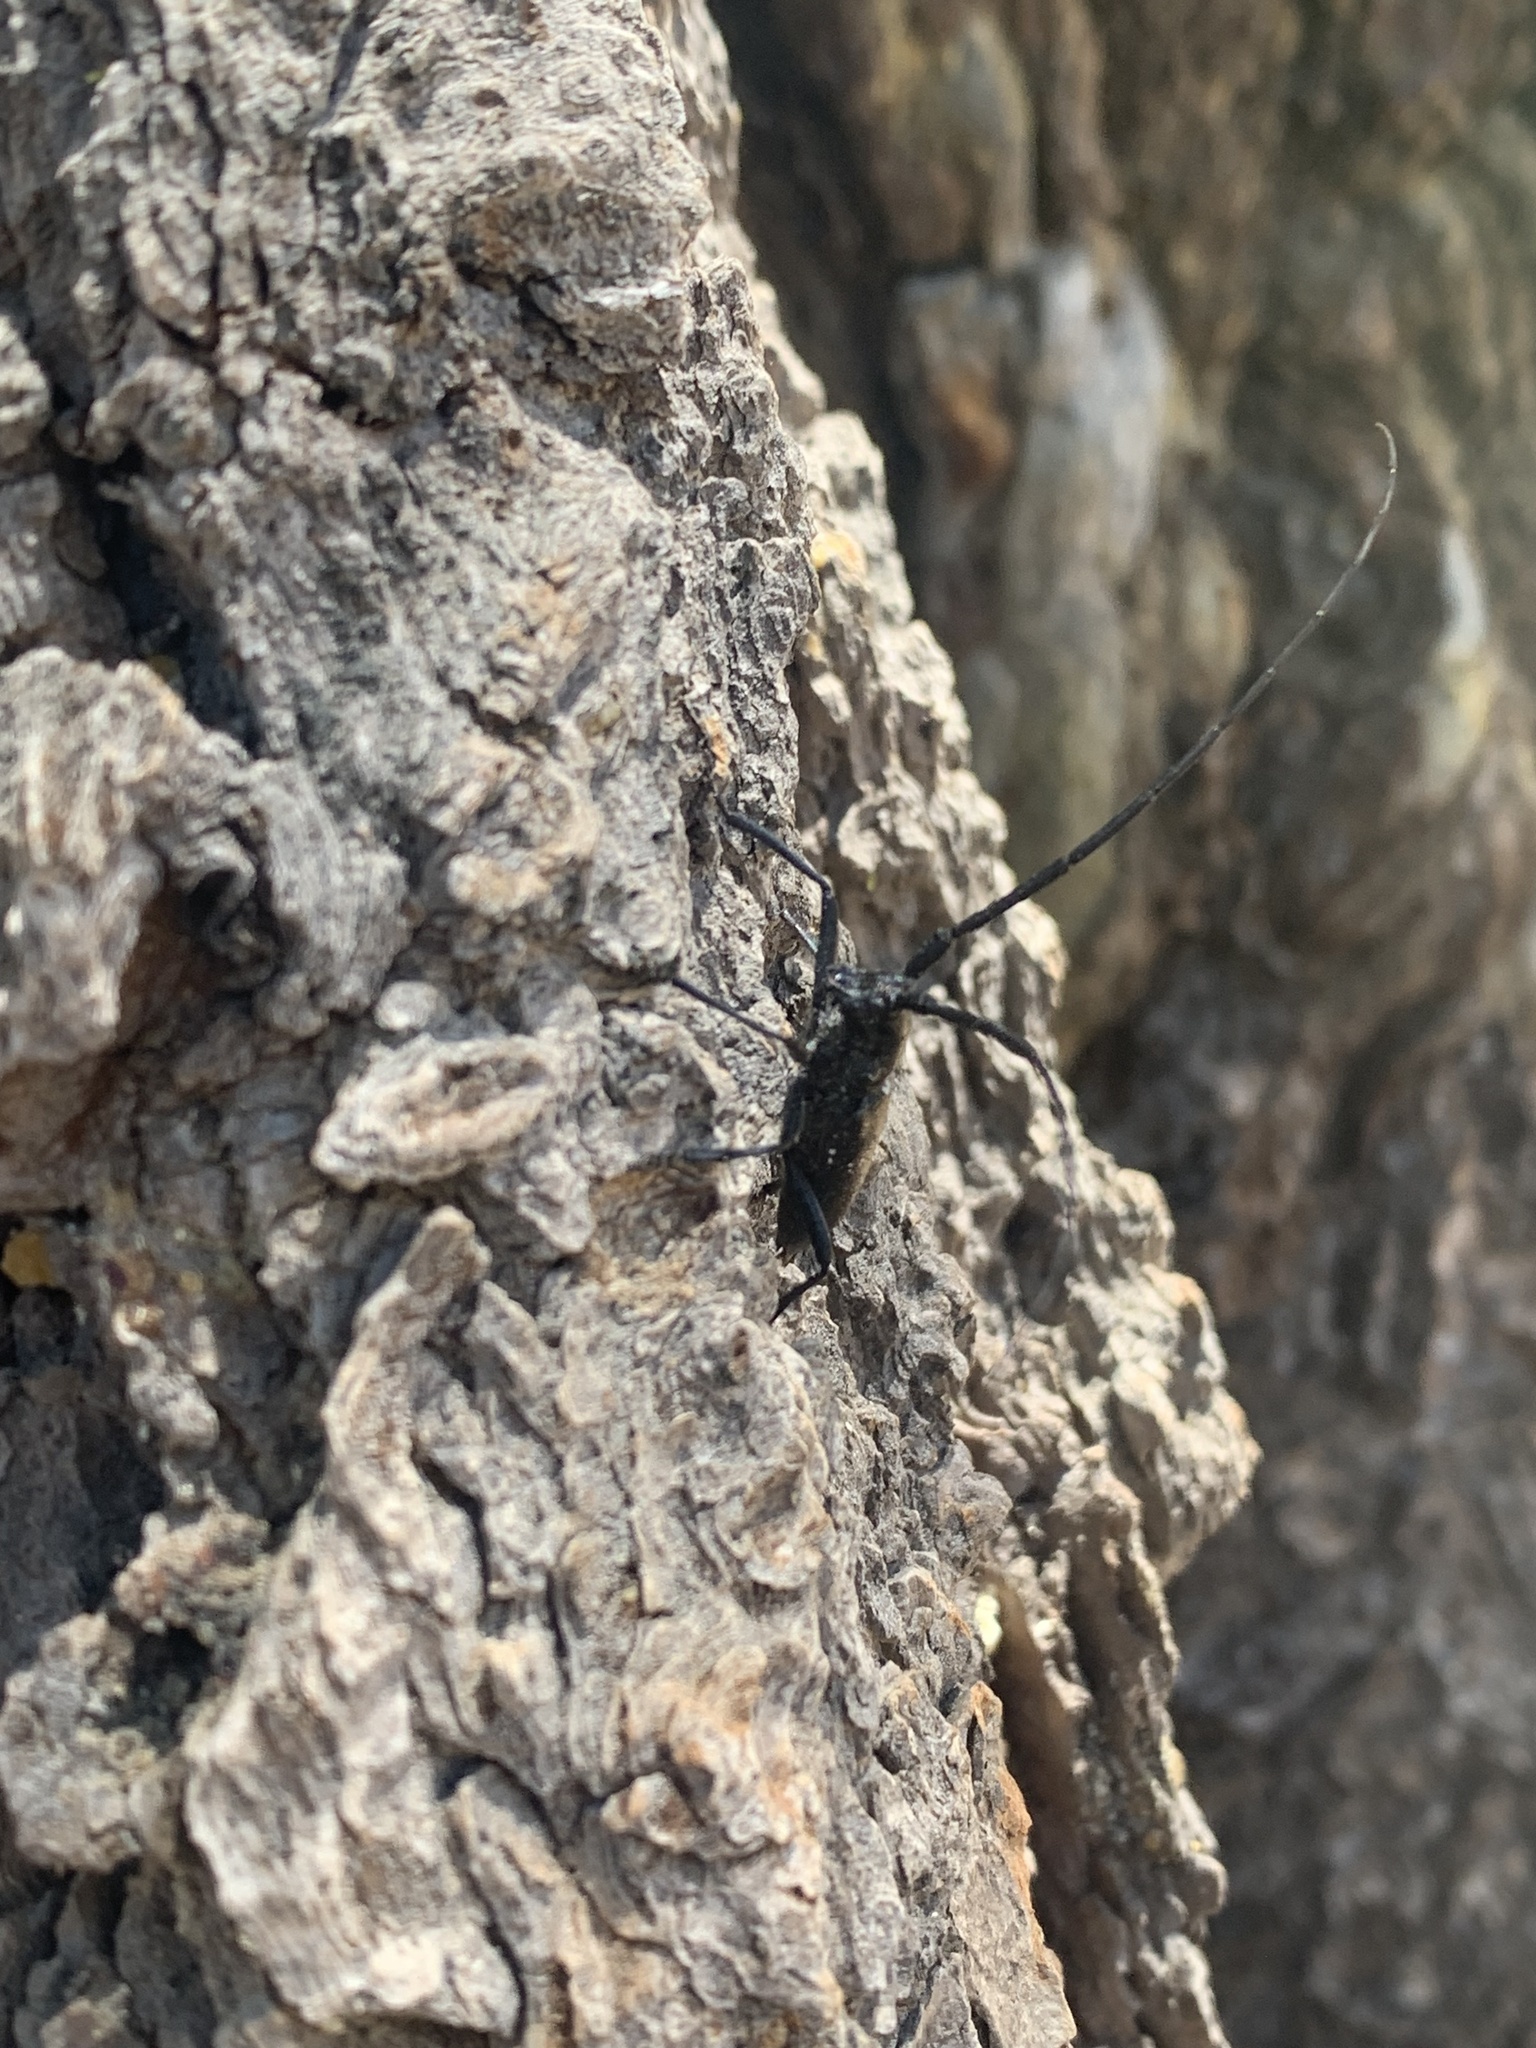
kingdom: Animalia
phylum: Arthropoda
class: Insecta
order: Coleoptera
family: Cerambycidae
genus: Monochamus
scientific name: Monochamus scutellatus
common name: White-spotted sawyer beetle
